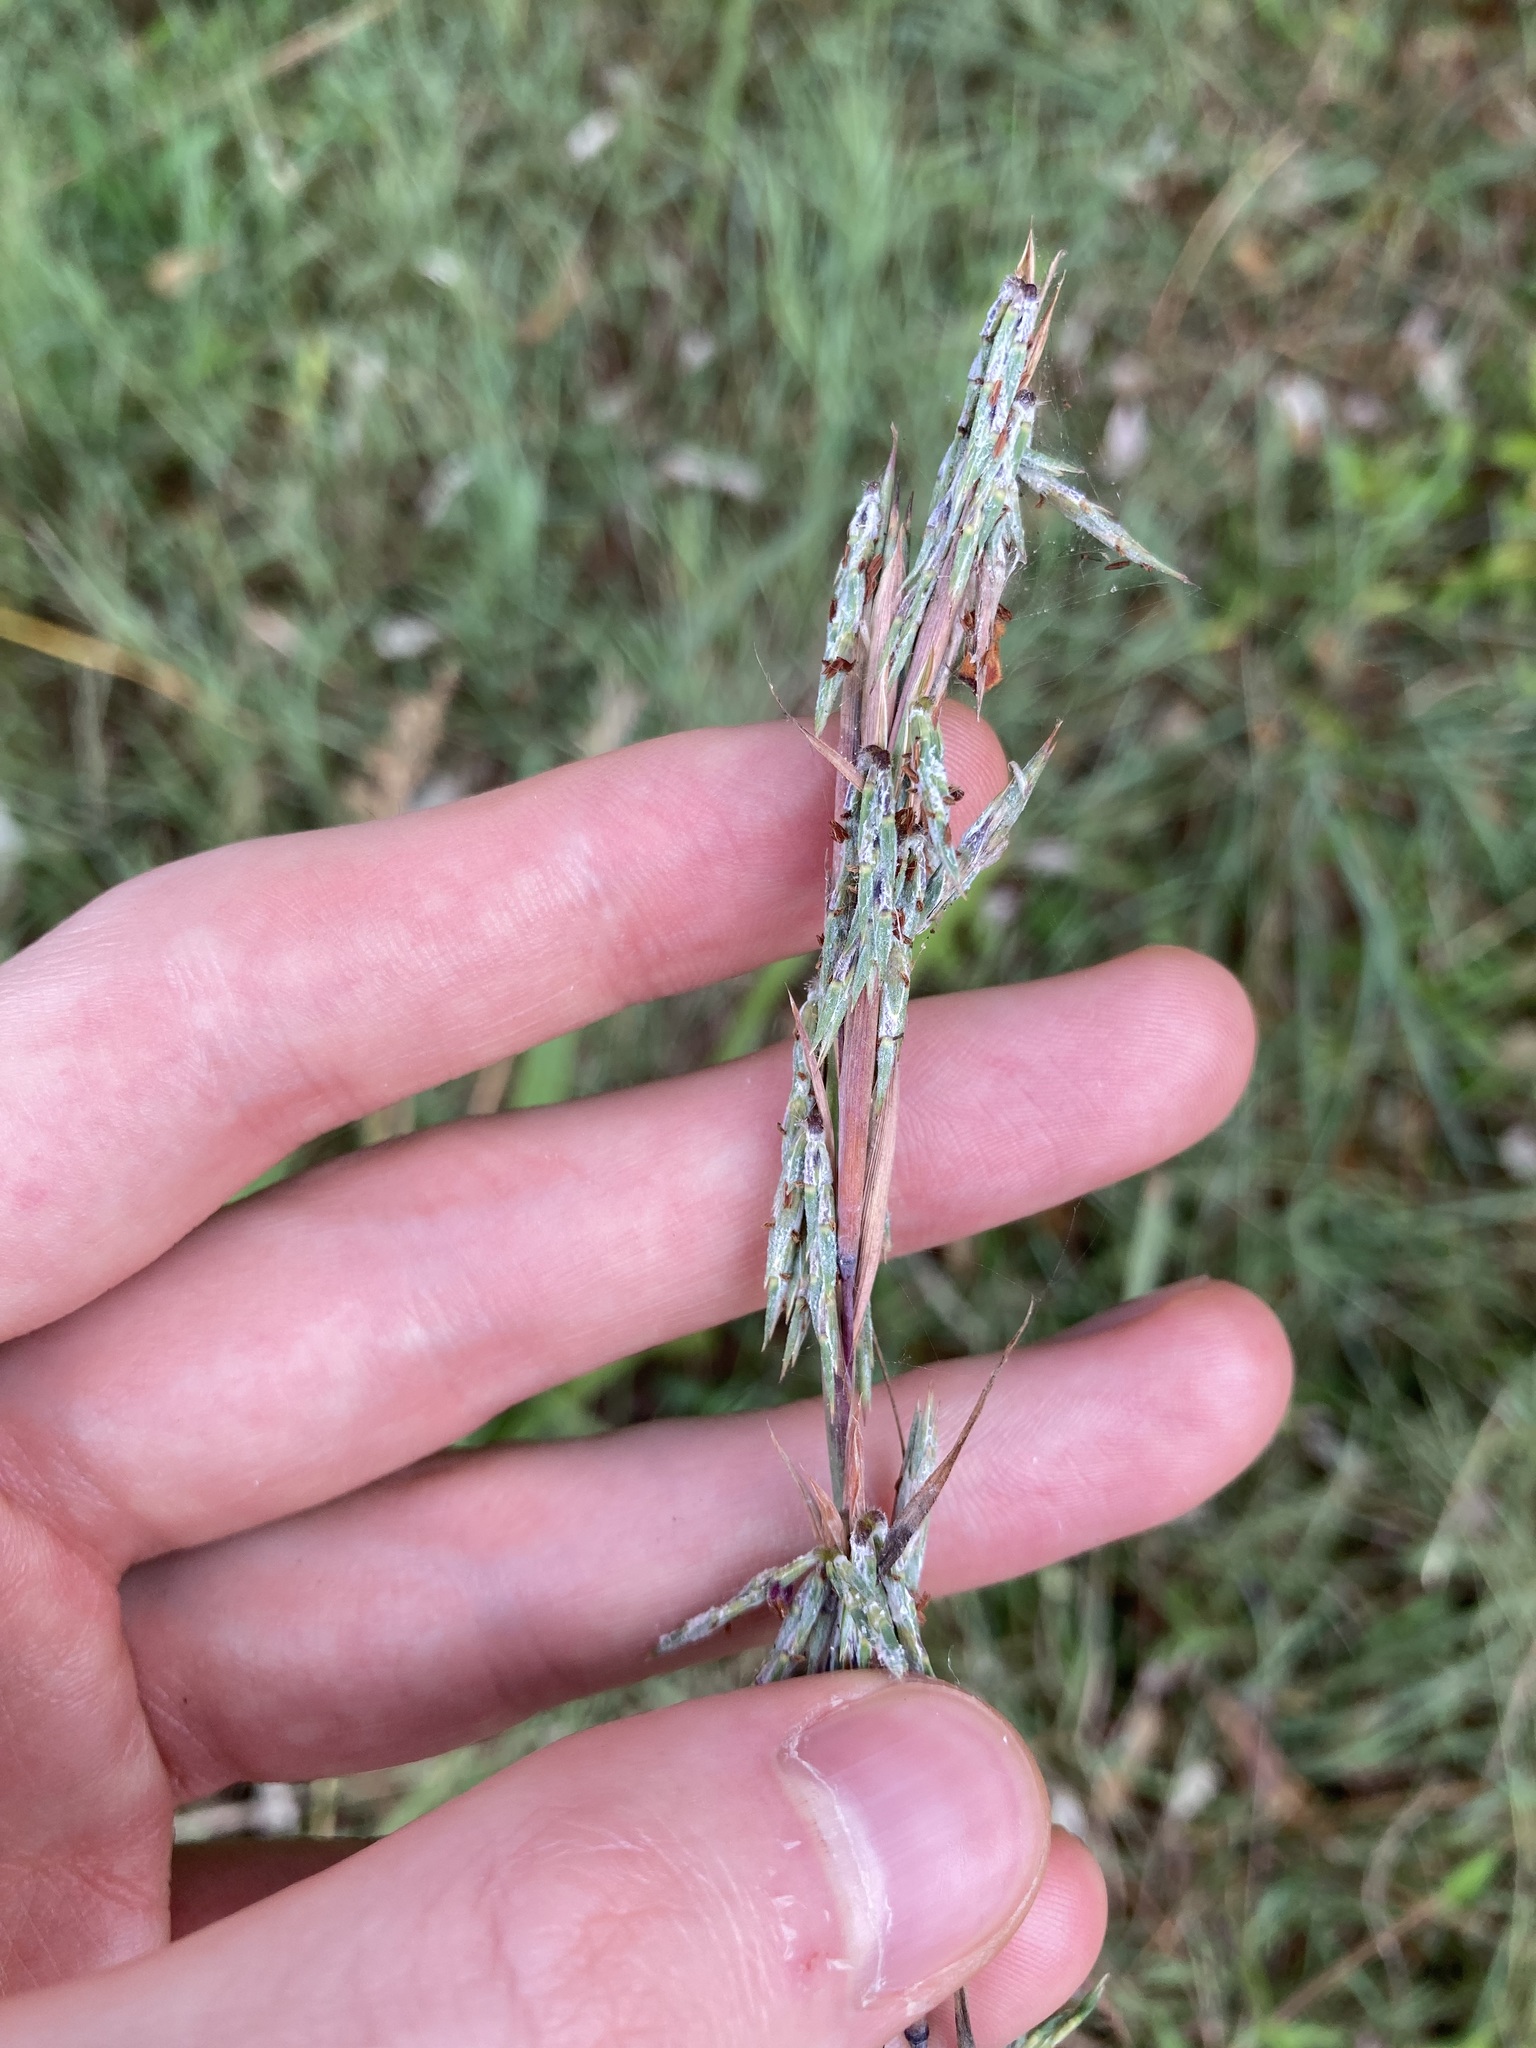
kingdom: Plantae
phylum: Tracheophyta
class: Liliopsida
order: Poales
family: Poaceae
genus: Cymbopogon
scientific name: Cymbopogon refractus
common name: Barbwire grass
